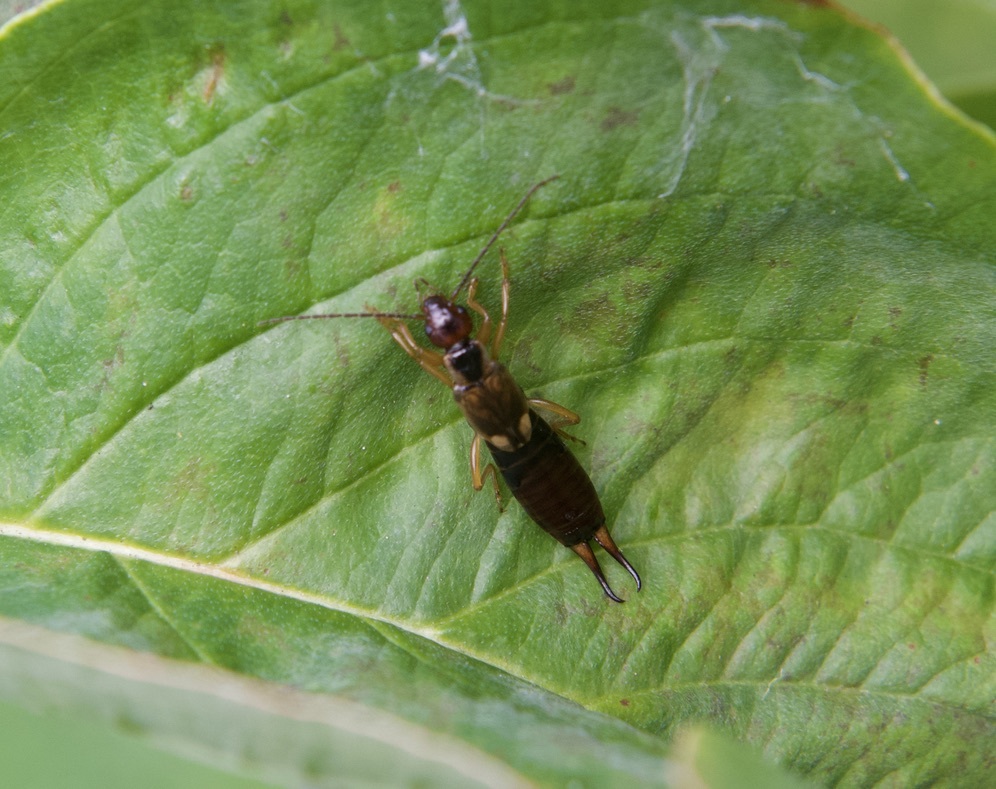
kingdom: Animalia
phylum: Arthropoda
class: Insecta
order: Dermaptera
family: Forficulidae
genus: Forficula
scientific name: Forficula
